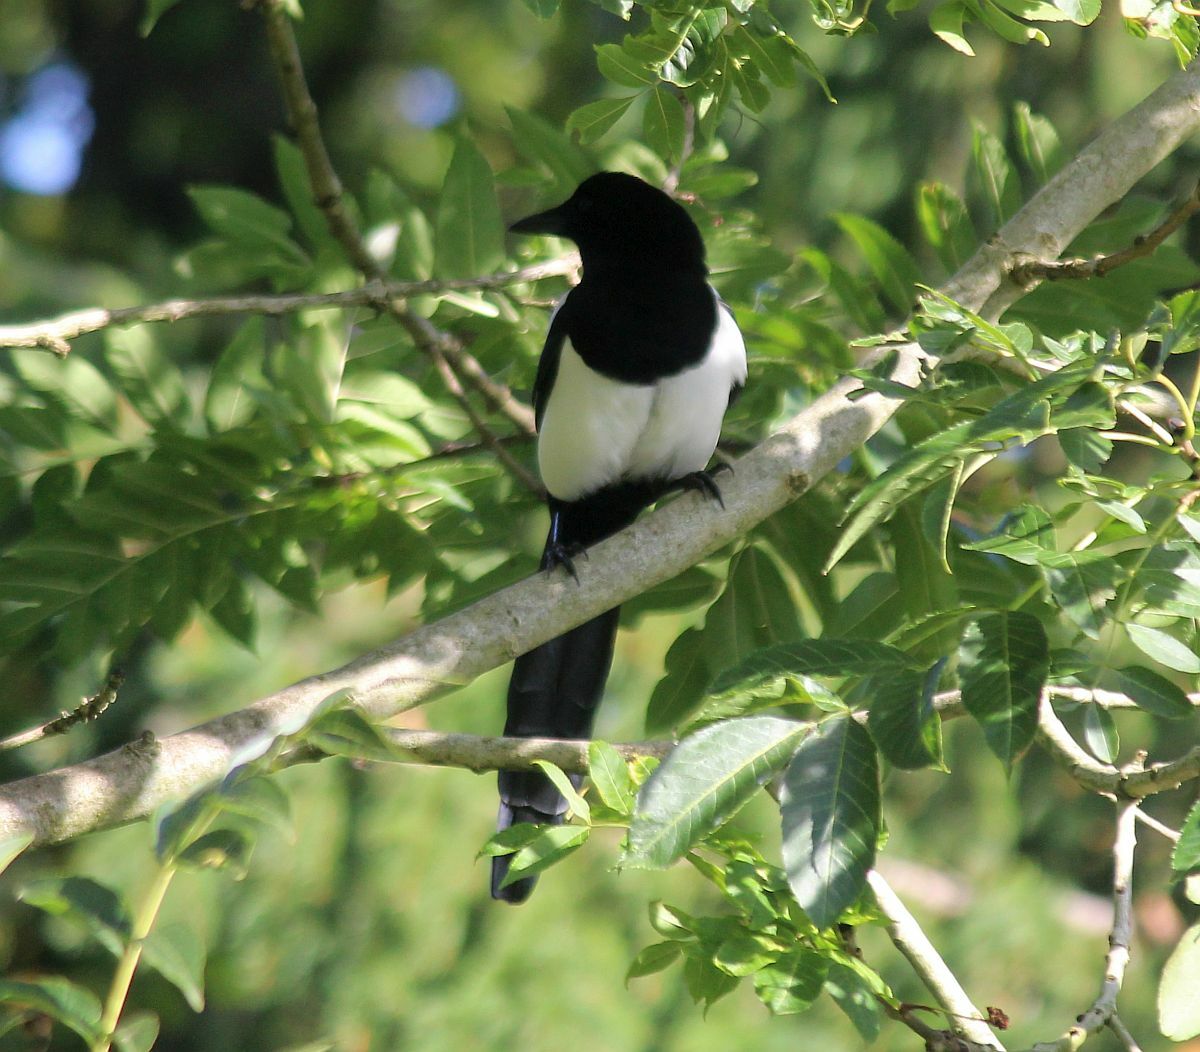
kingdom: Animalia
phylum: Chordata
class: Aves
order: Passeriformes
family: Corvidae
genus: Pica
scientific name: Pica pica
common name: Eurasian magpie
